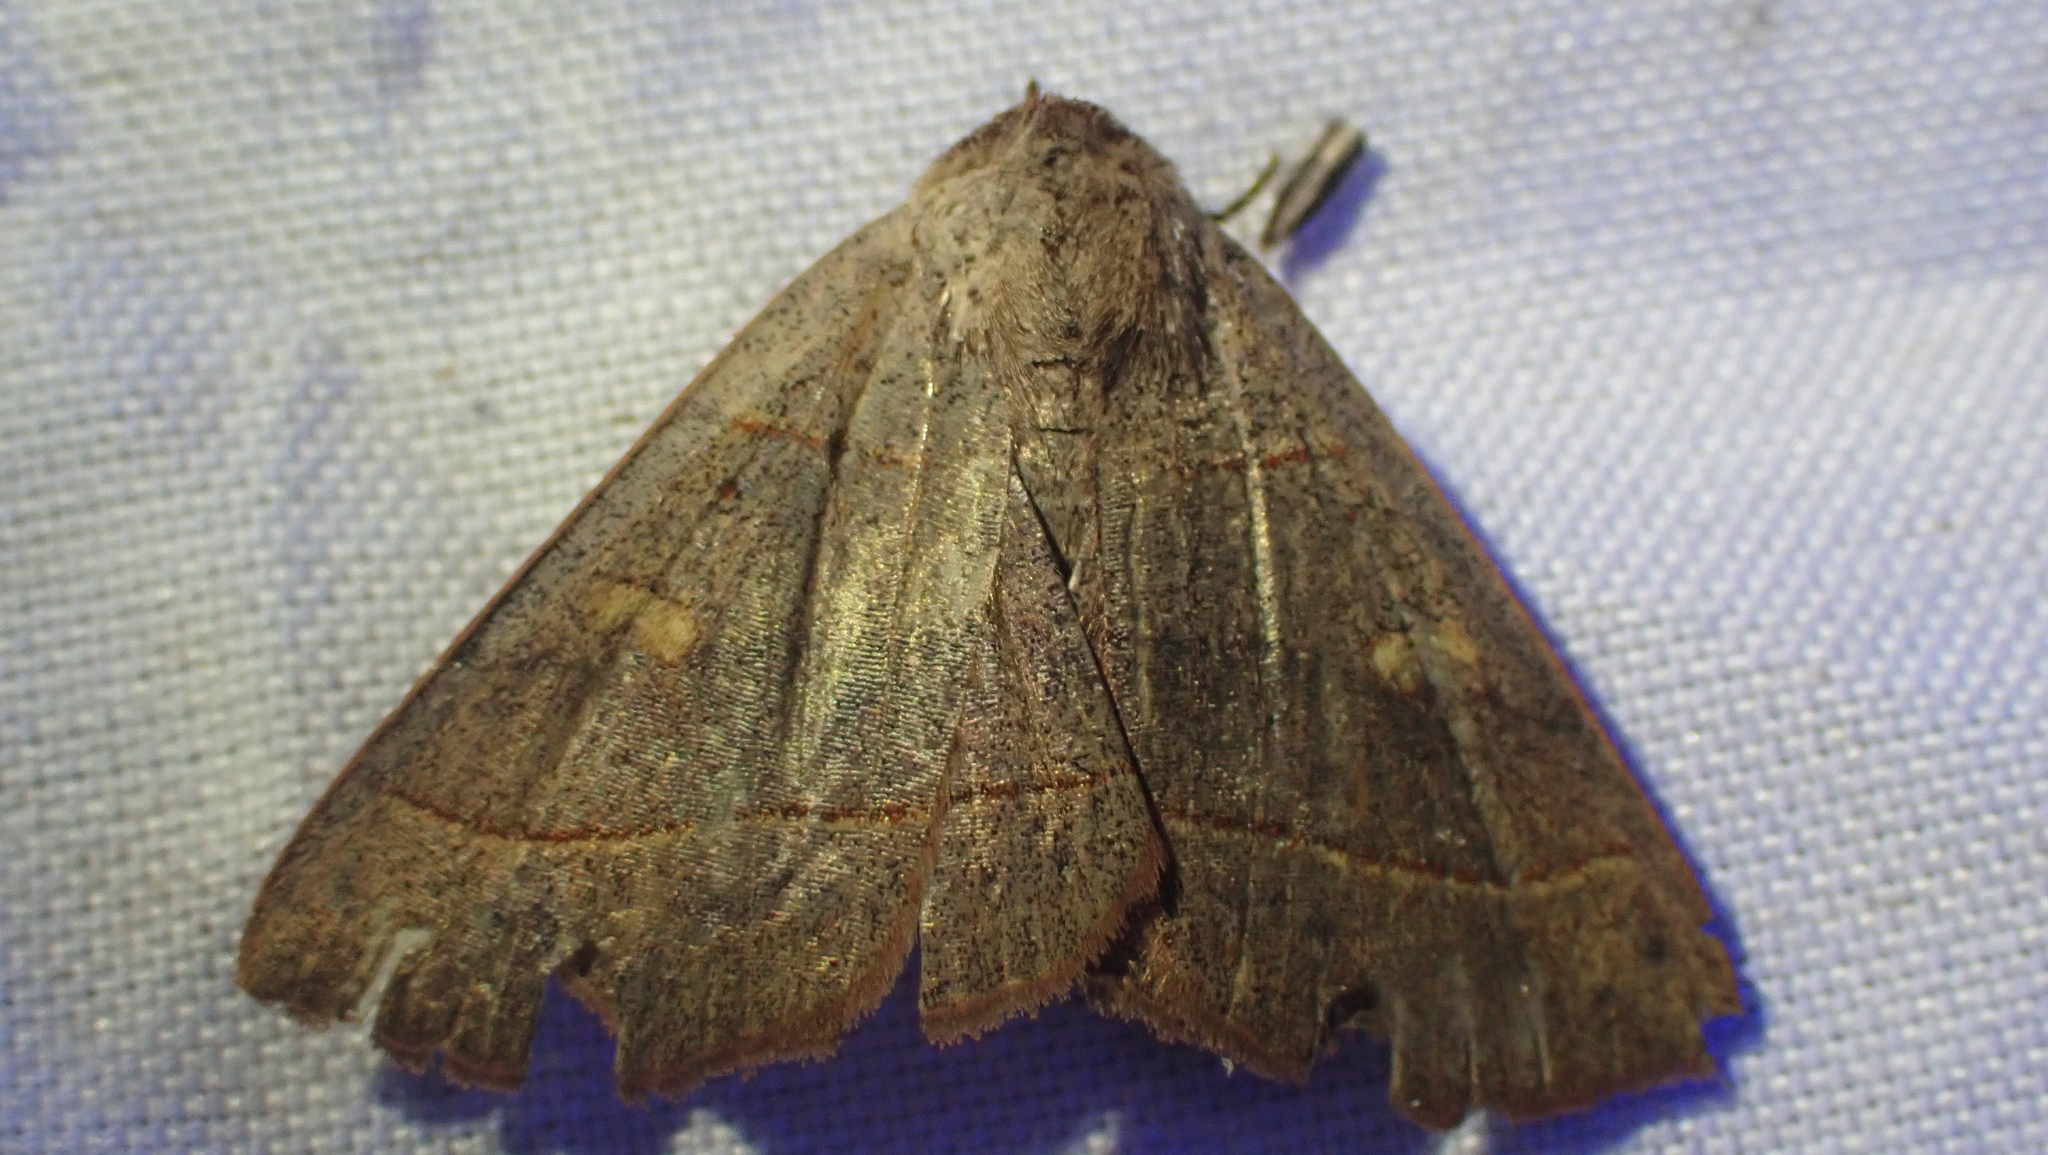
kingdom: Animalia
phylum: Arthropoda
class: Insecta
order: Lepidoptera
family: Erebidae
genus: Panopoda
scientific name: Panopoda rufimargo
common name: Red-lined panopoda moth
